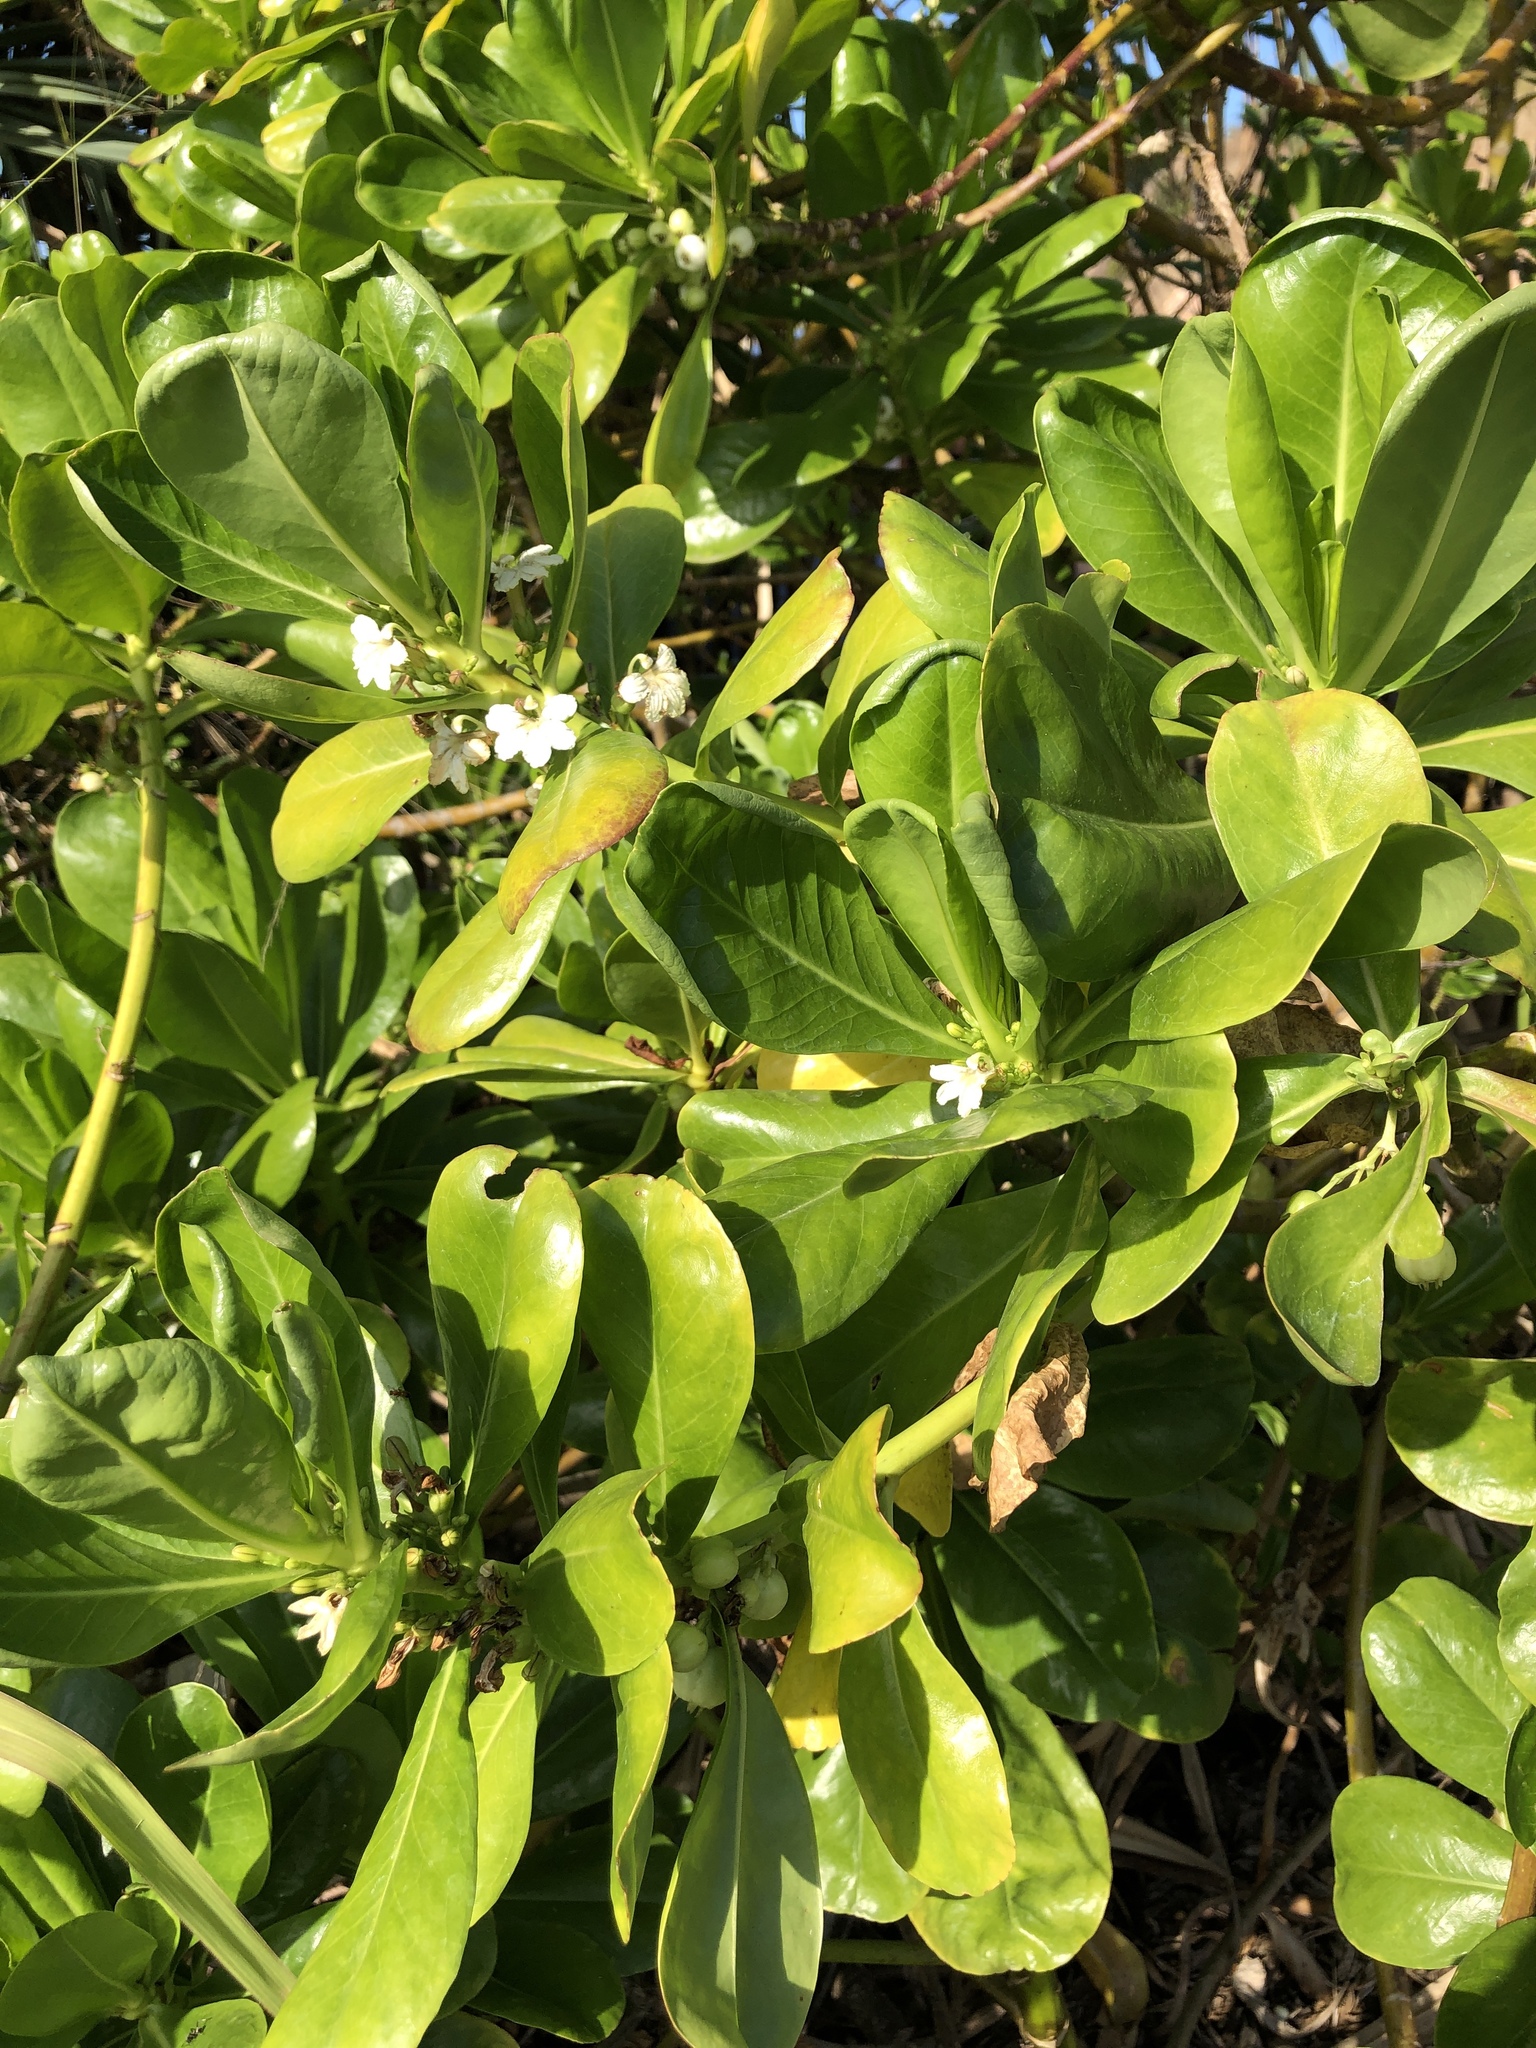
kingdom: Plantae
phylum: Tracheophyta
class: Magnoliopsida
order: Asterales
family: Goodeniaceae
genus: Scaevola
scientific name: Scaevola taccada
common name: Sea lettucetree
